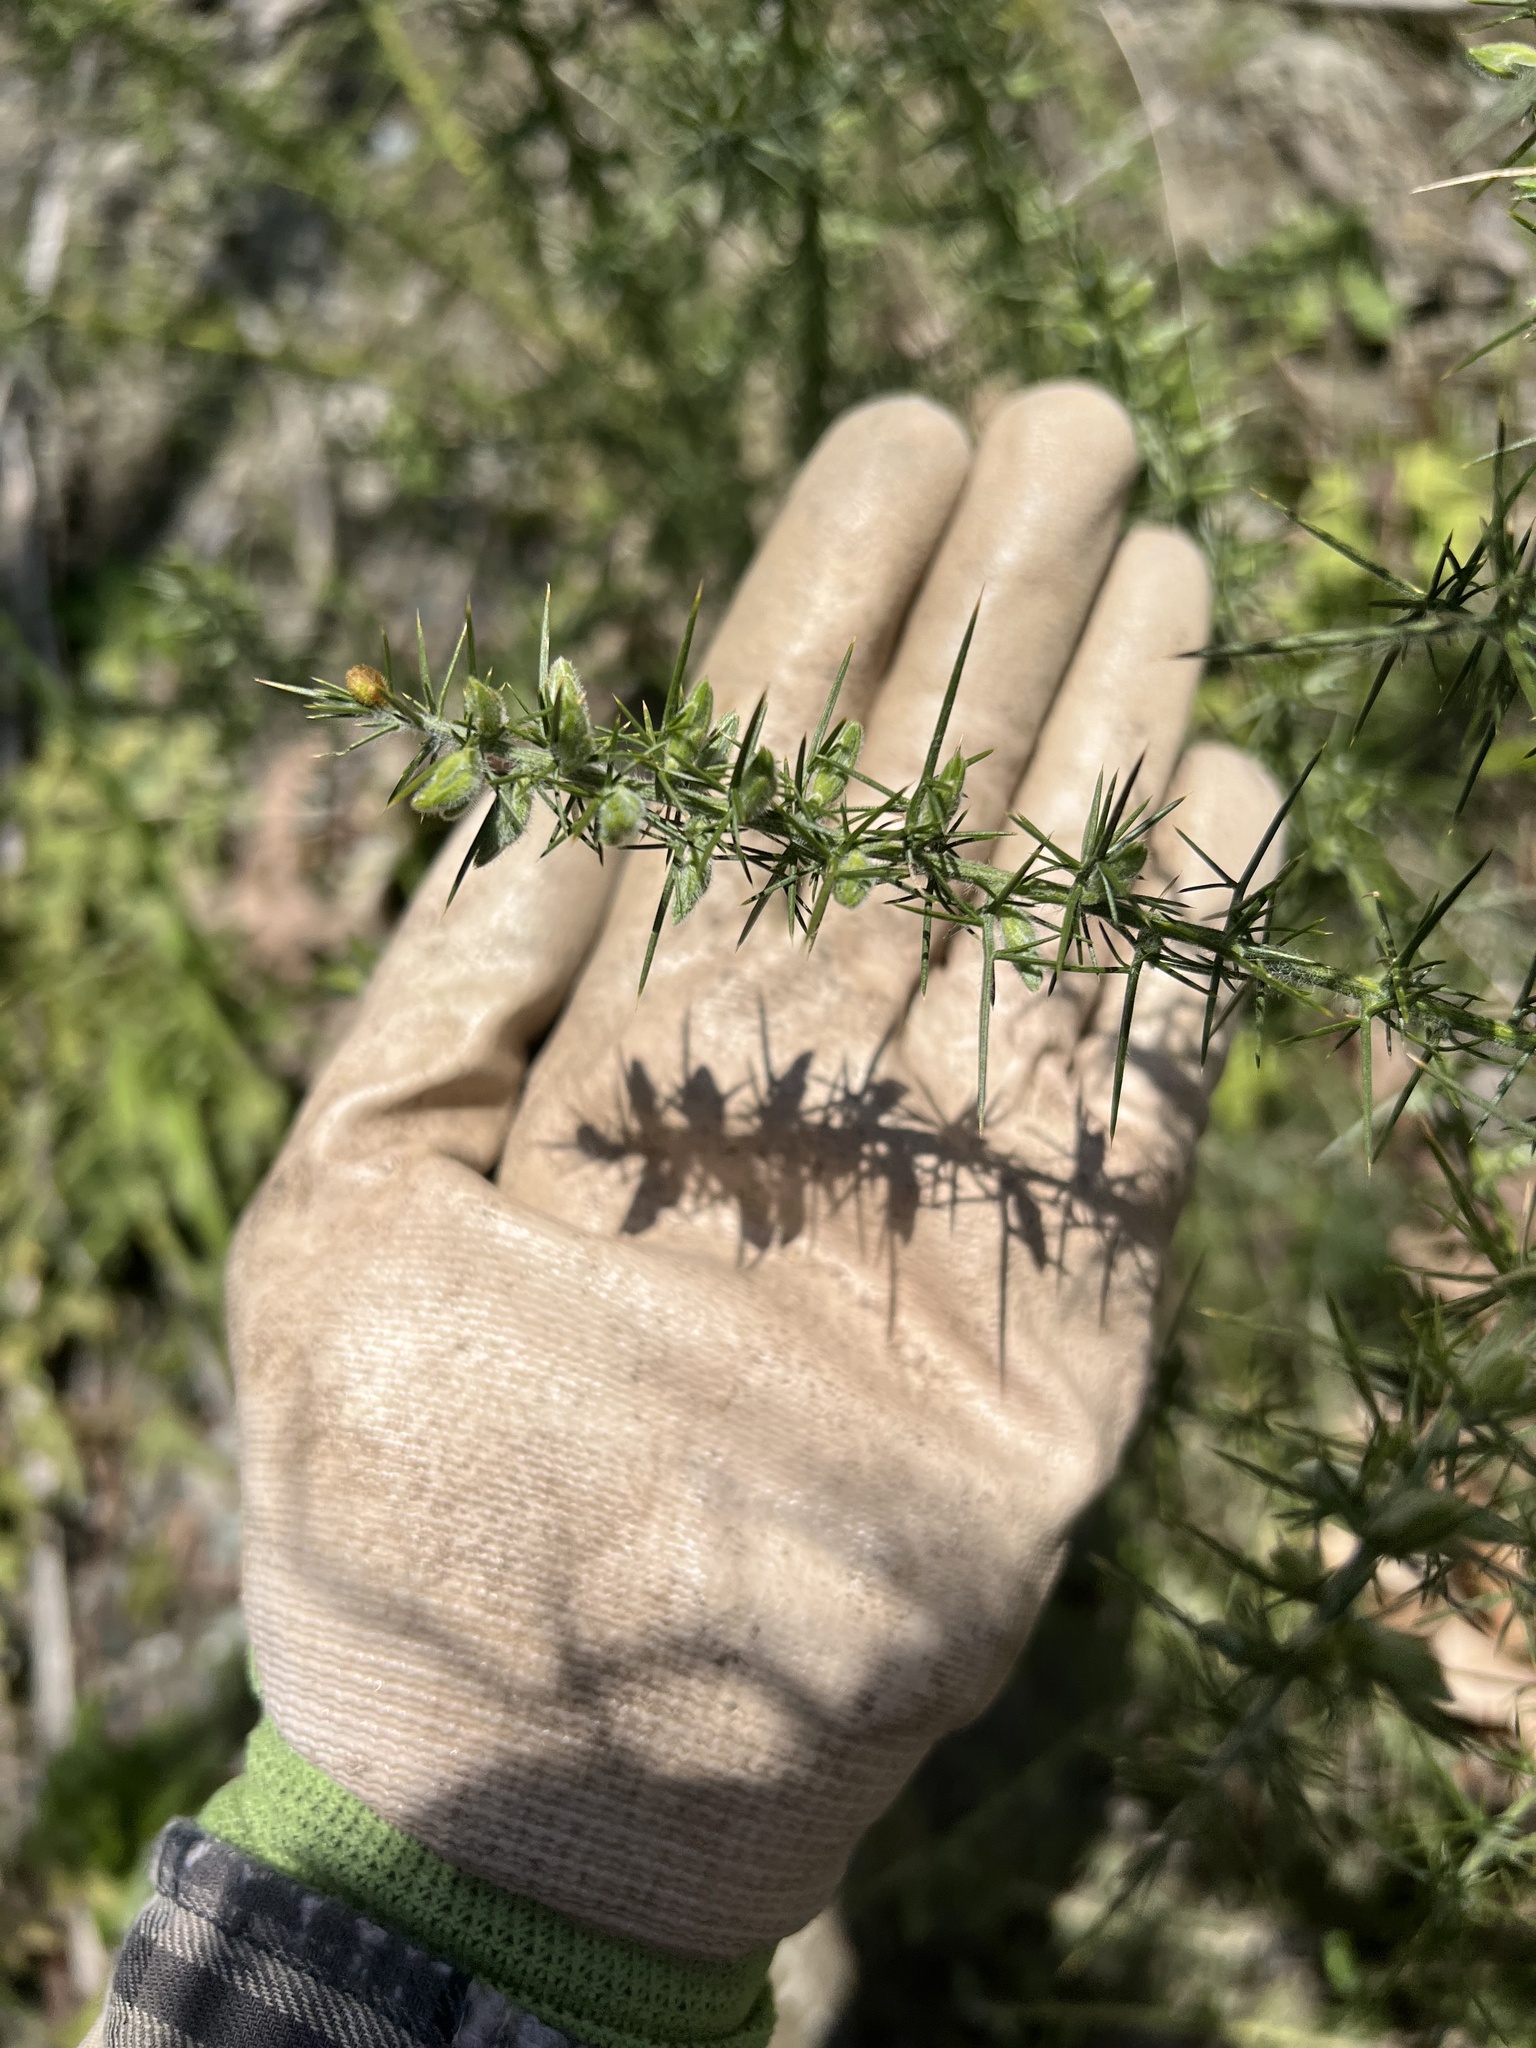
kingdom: Plantae
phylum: Tracheophyta
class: Magnoliopsida
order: Fabales
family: Fabaceae
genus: Ulex
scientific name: Ulex europaeus
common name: Common gorse
